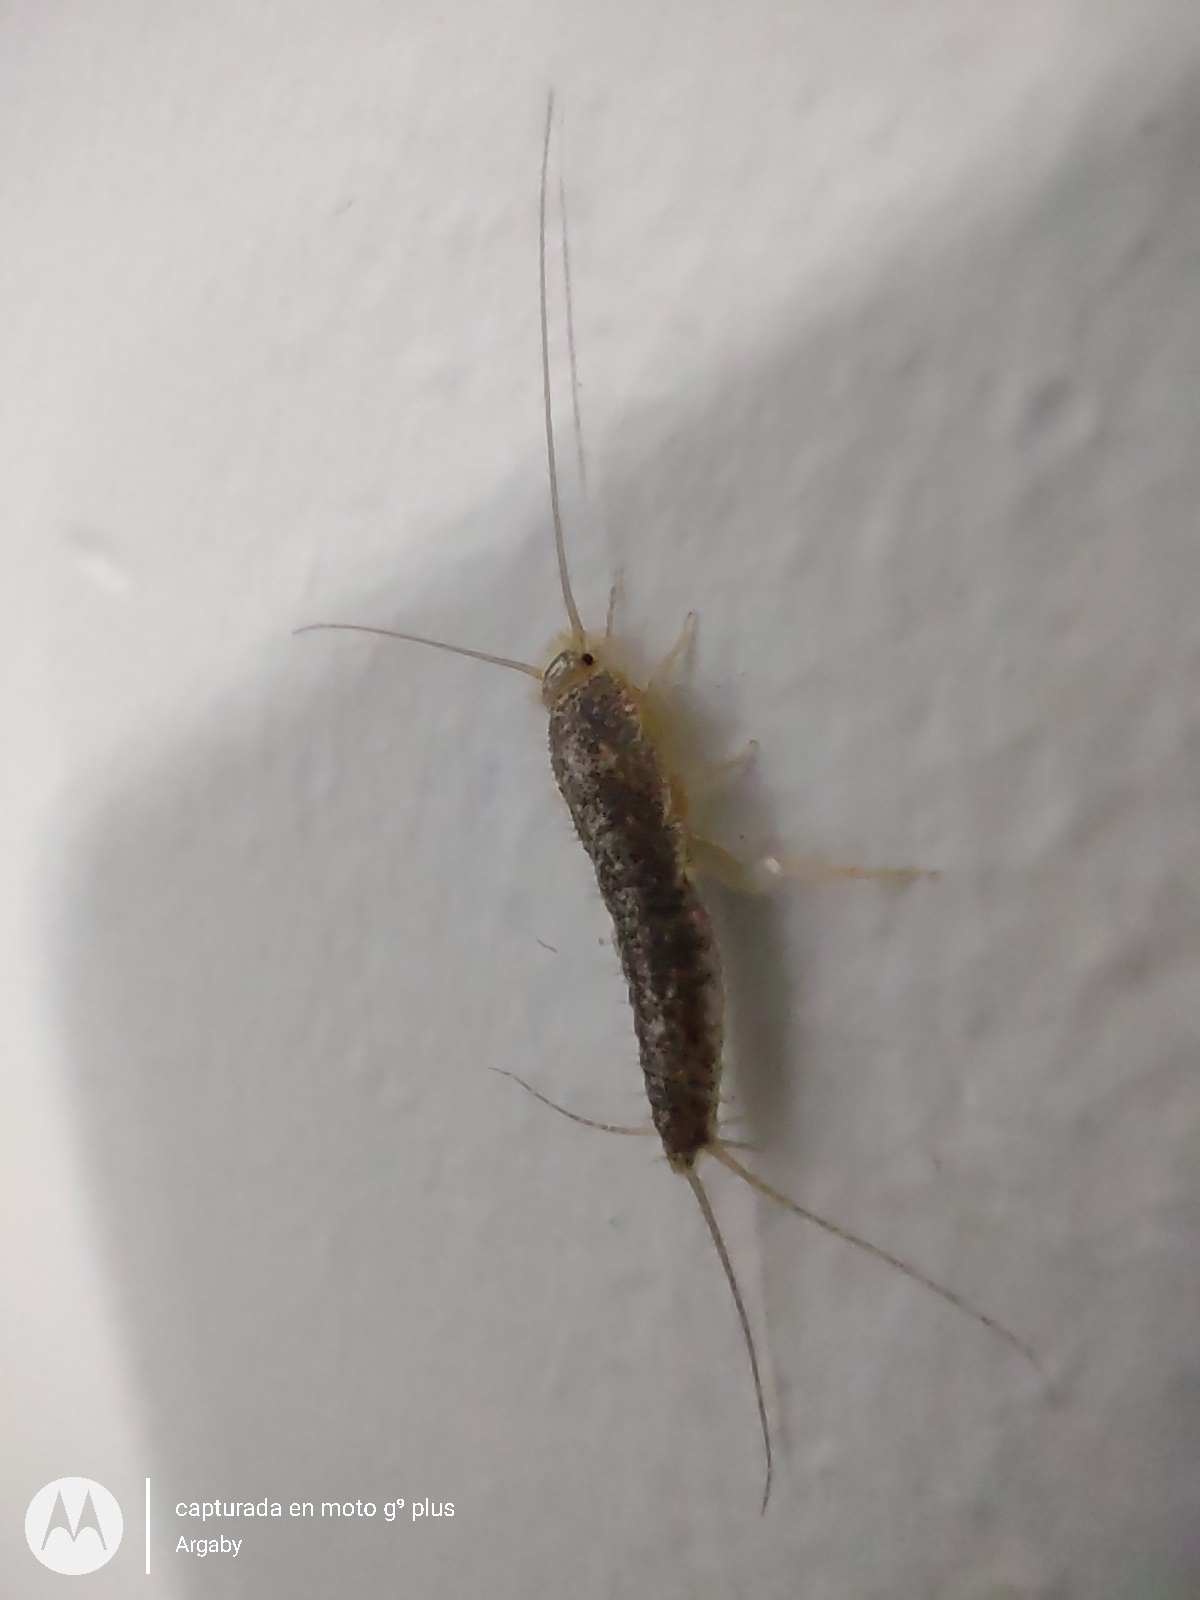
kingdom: Animalia
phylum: Arthropoda
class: Insecta
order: Zygentoma
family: Lepismatidae
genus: Ctenolepisma
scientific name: Ctenolepisma longicaudatum
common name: Silverfish
